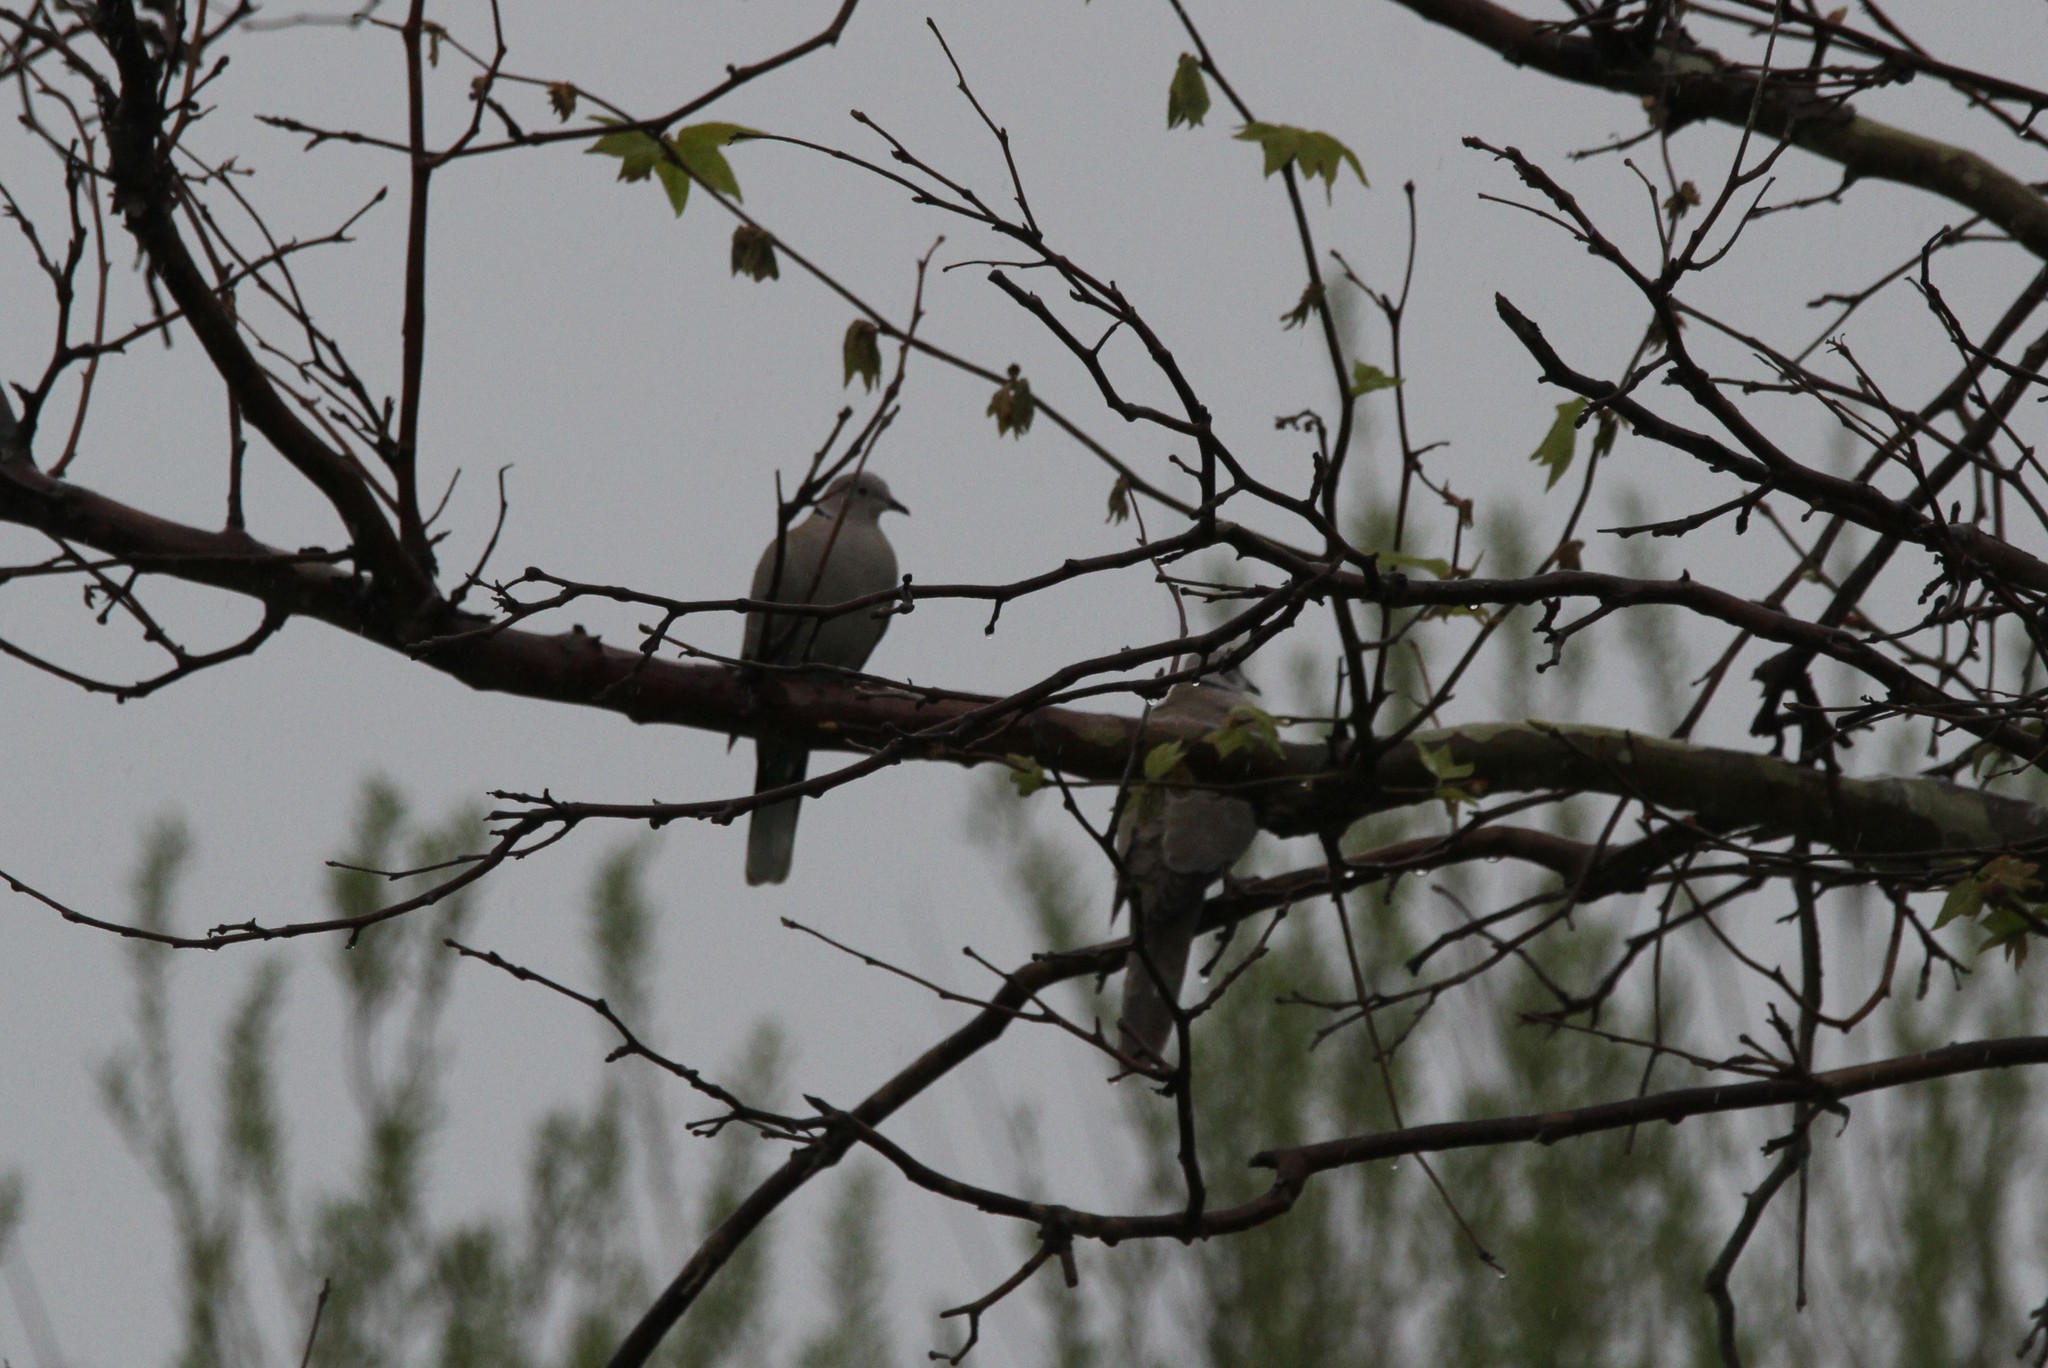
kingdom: Animalia
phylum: Chordata
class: Aves
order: Columbiformes
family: Columbidae
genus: Streptopelia
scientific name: Streptopelia decaocto
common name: Eurasian collared dove
